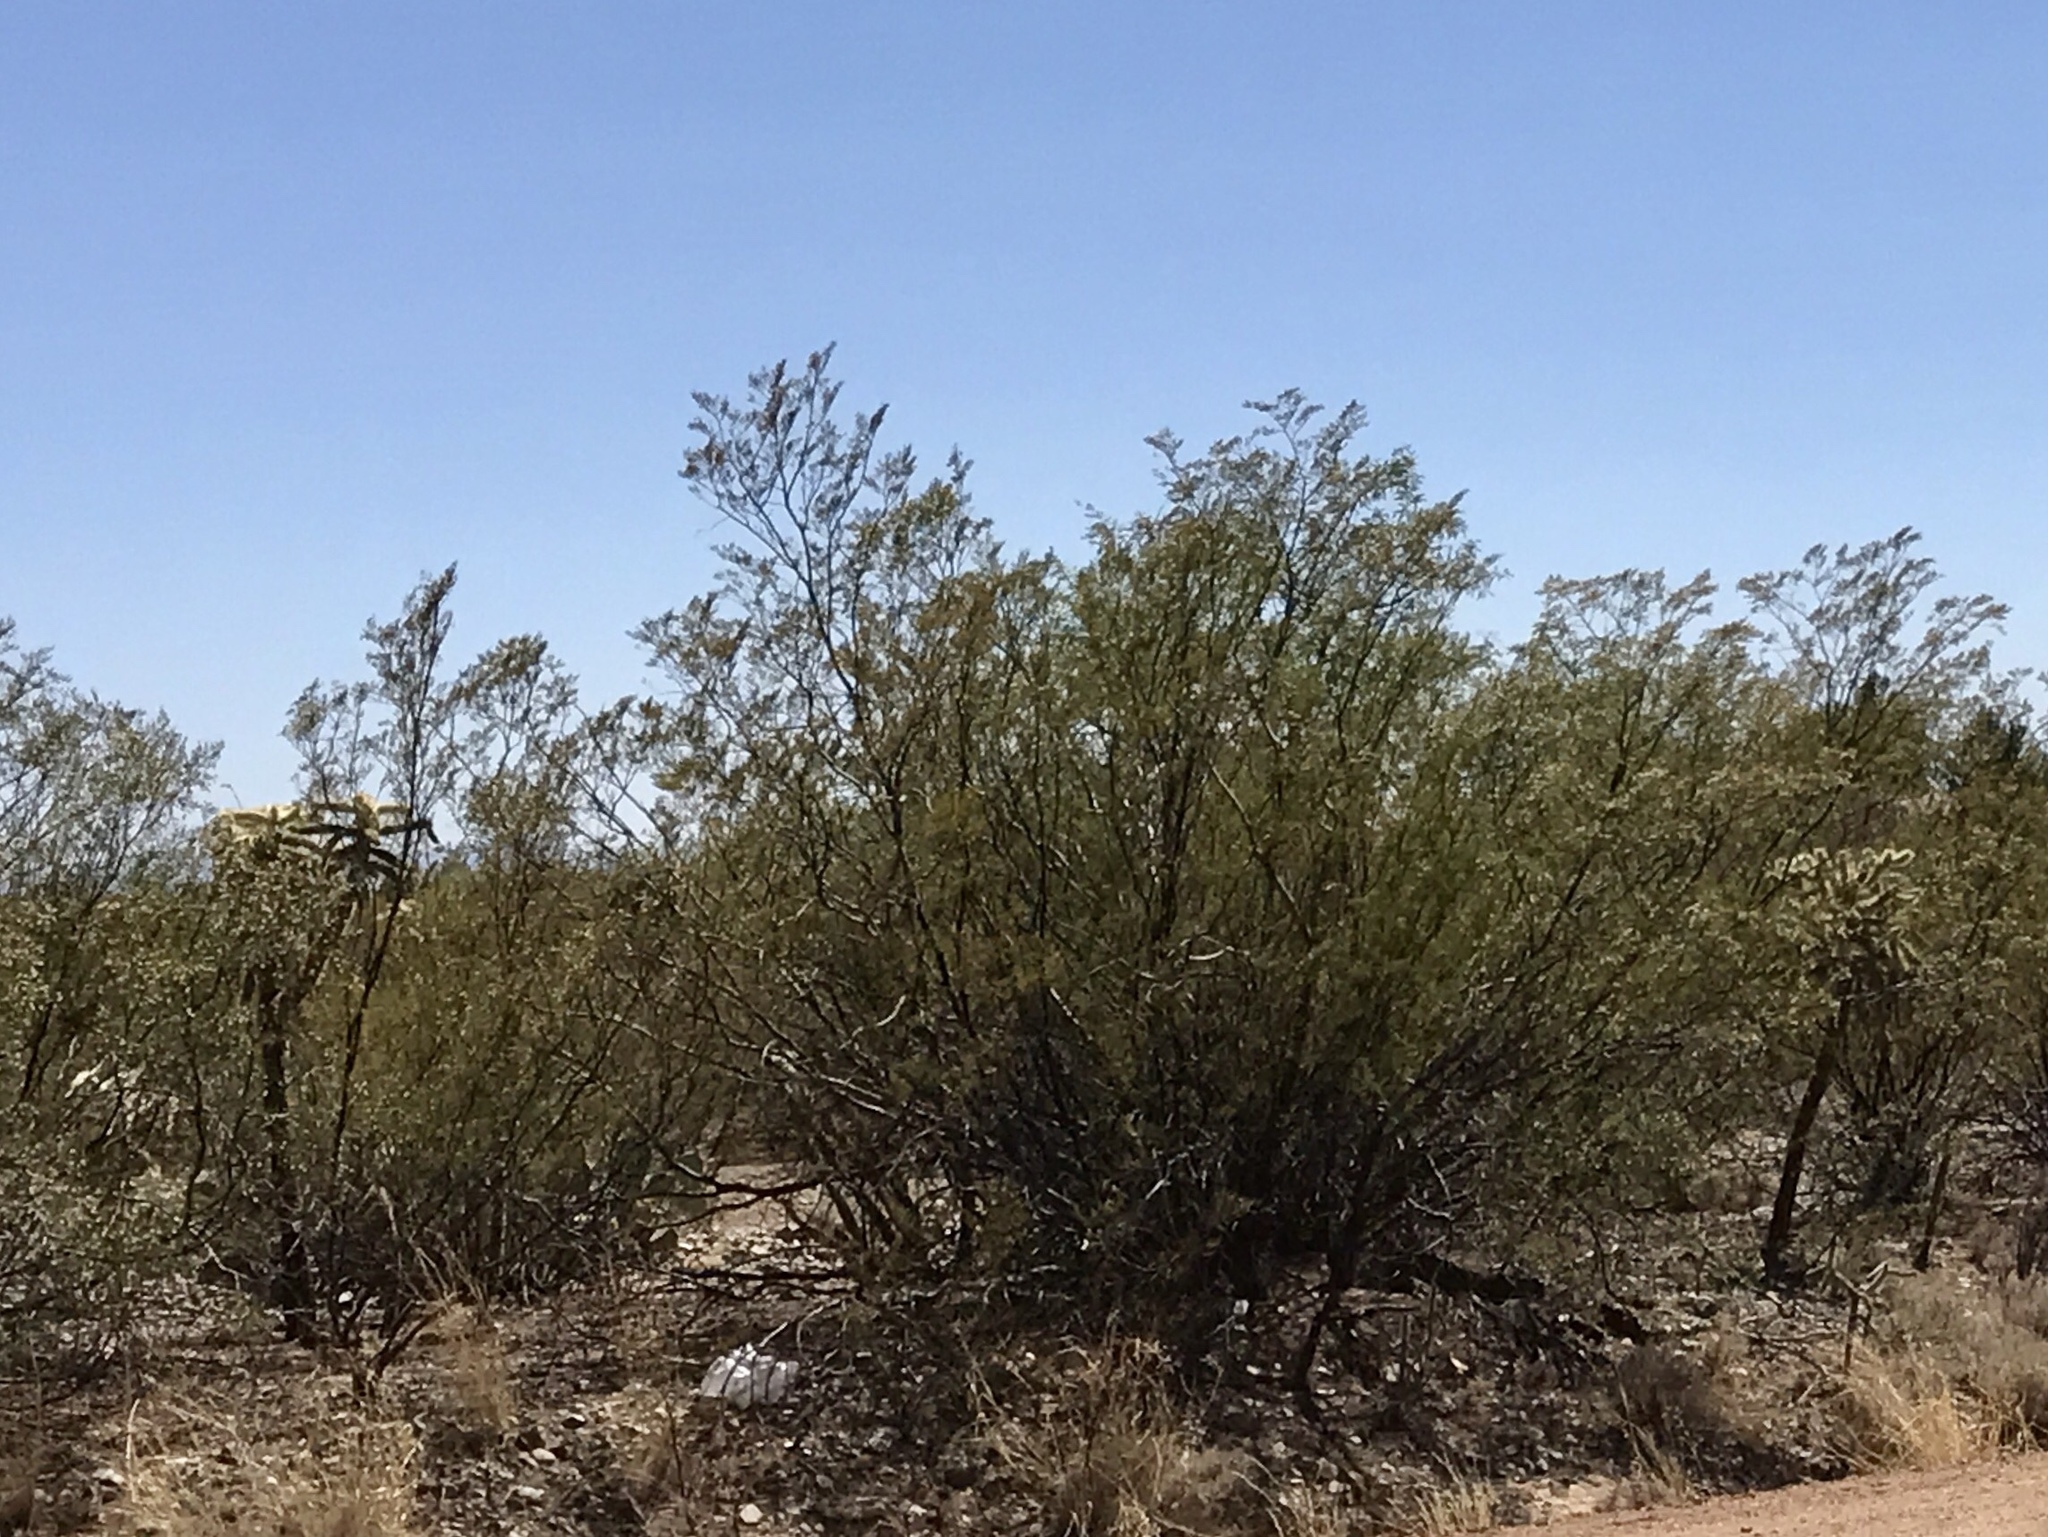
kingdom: Plantae
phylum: Tracheophyta
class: Magnoliopsida
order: Zygophyllales
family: Zygophyllaceae
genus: Larrea
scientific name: Larrea tridentata
